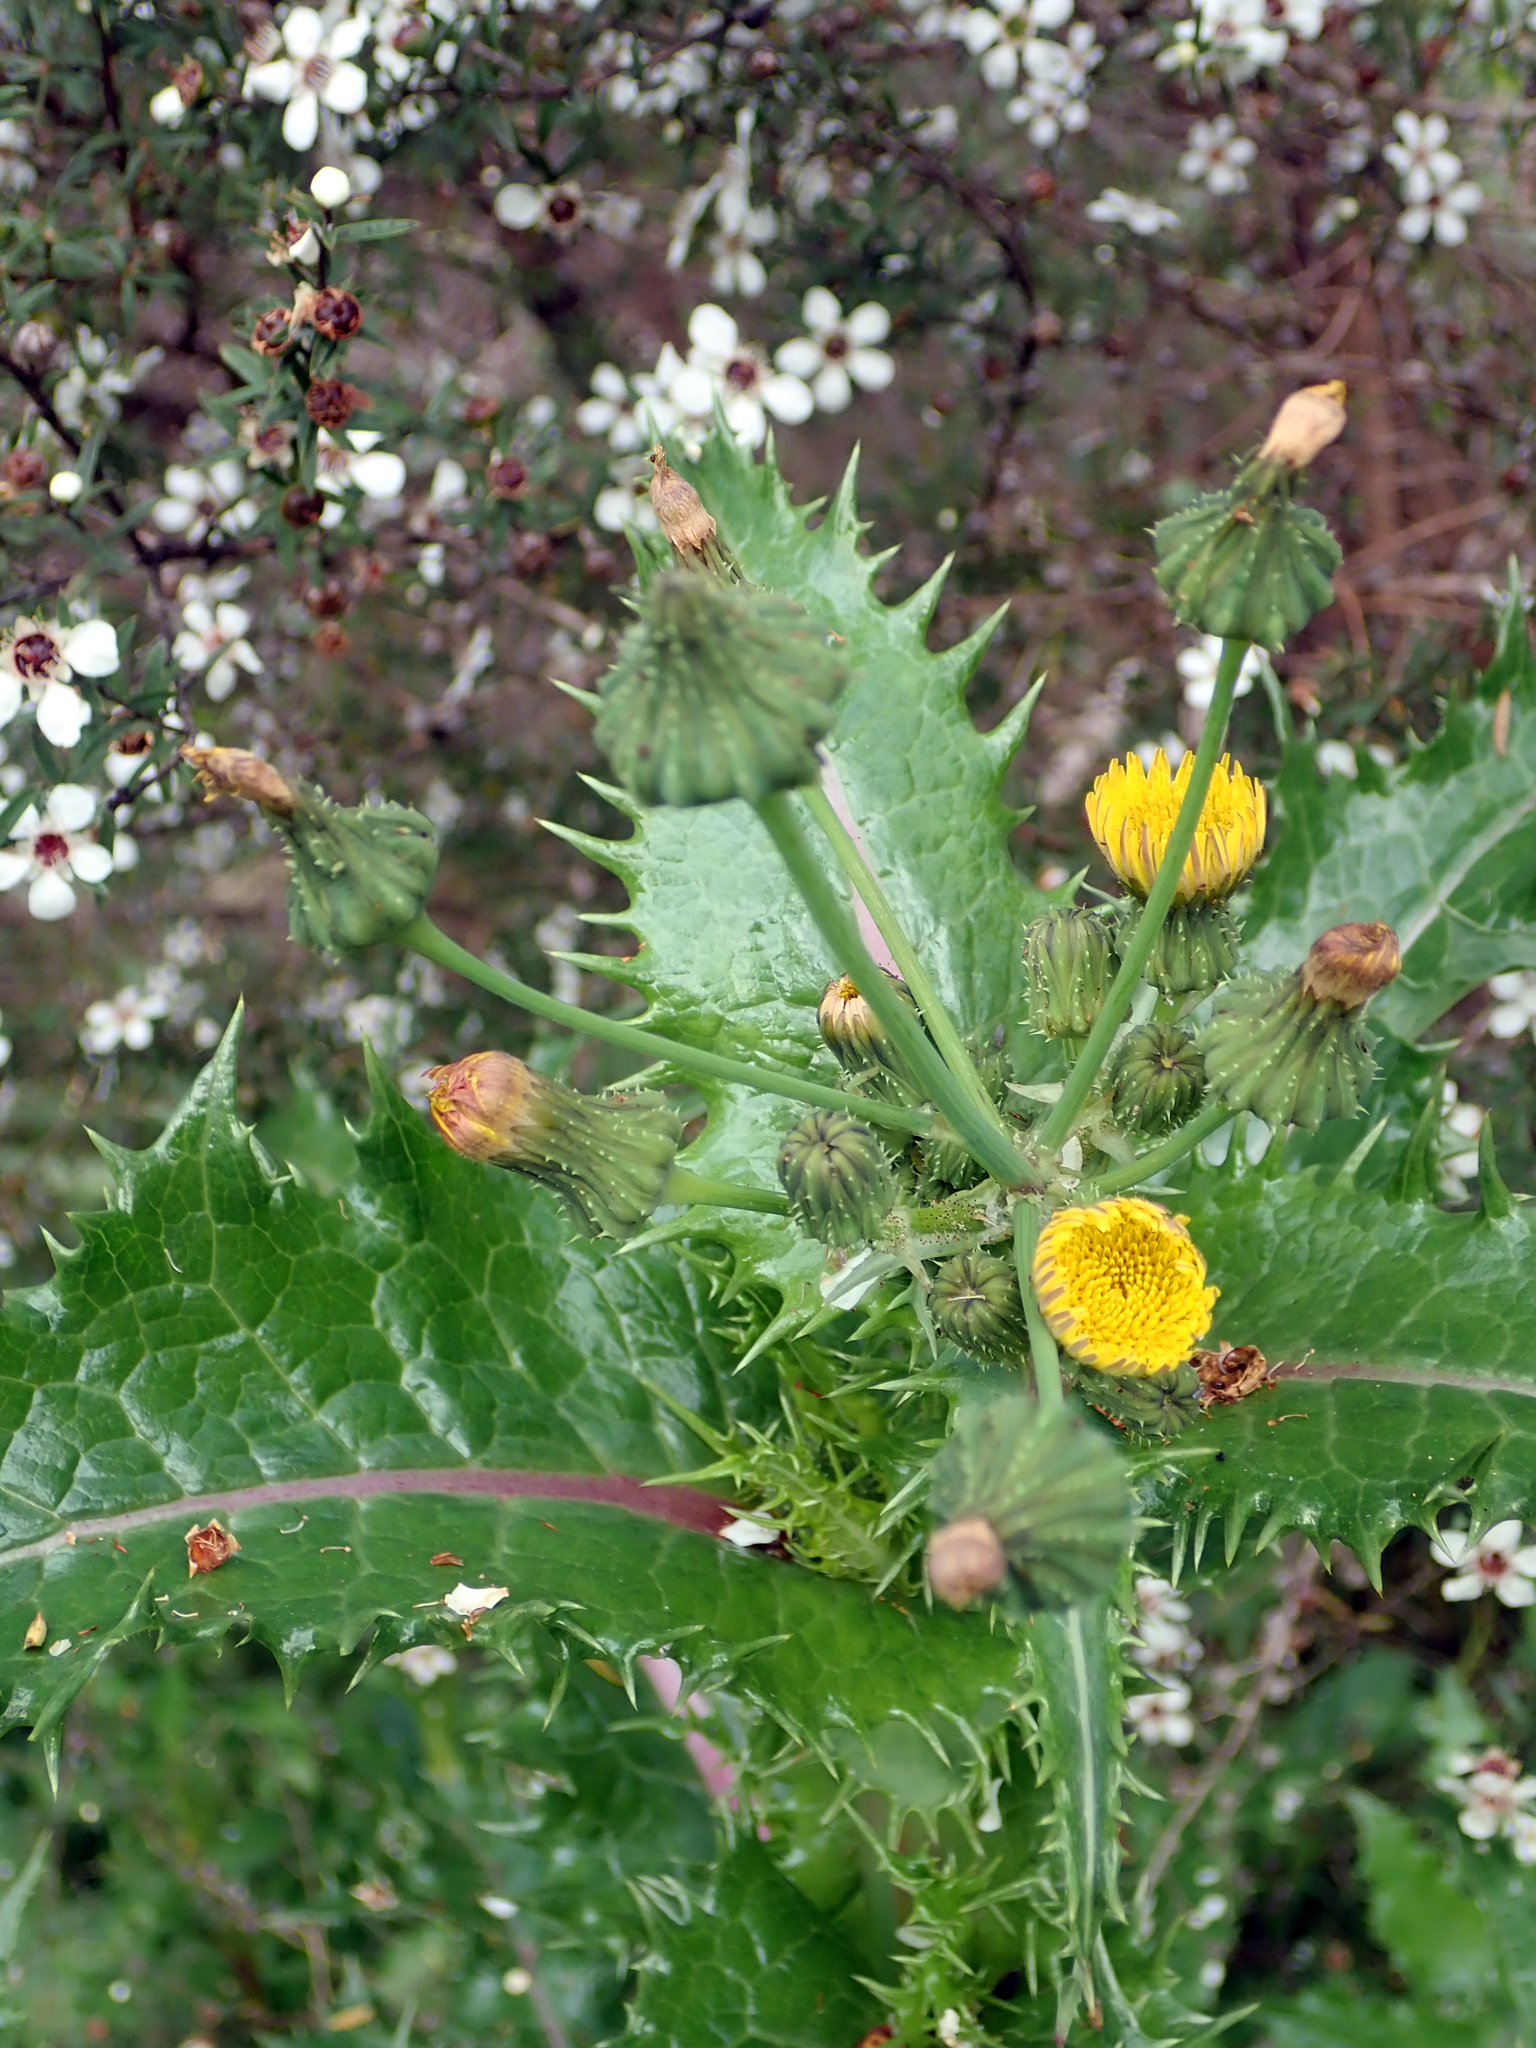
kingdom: Plantae
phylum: Tracheophyta
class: Magnoliopsida
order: Asterales
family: Asteraceae
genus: Sonchus
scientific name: Sonchus asper
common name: Prickly sow-thistle
